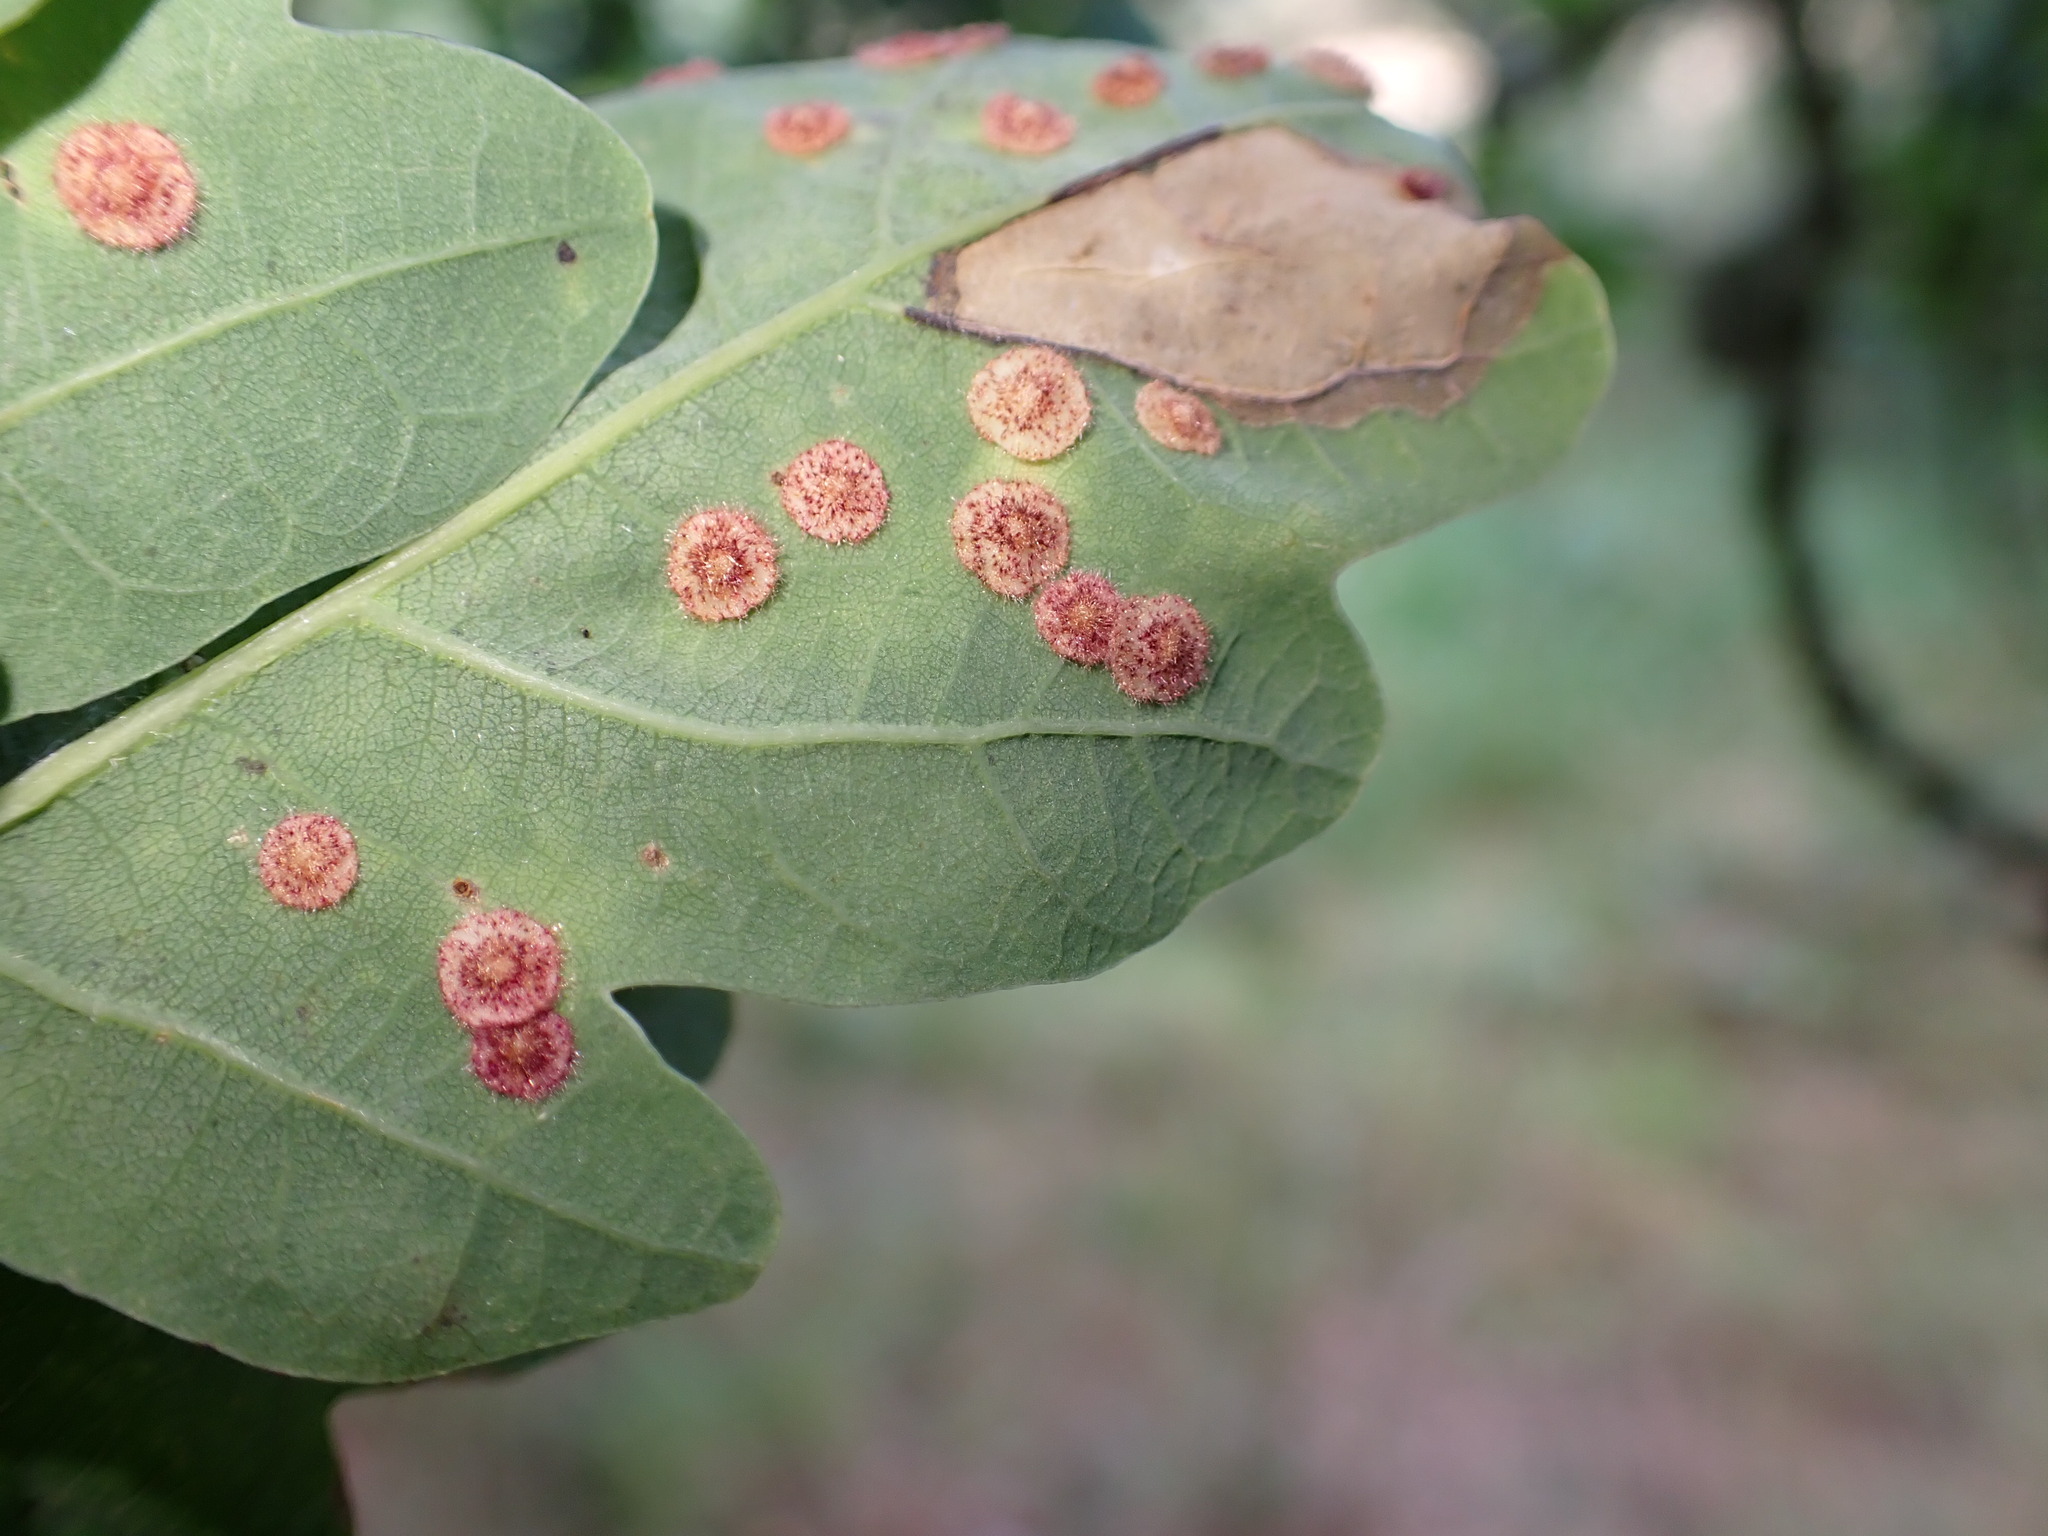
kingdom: Animalia
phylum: Arthropoda
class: Insecta
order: Hymenoptera
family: Cynipidae
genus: Neuroterus
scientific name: Neuroterus quercusbaccarum
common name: Common spangle gall
